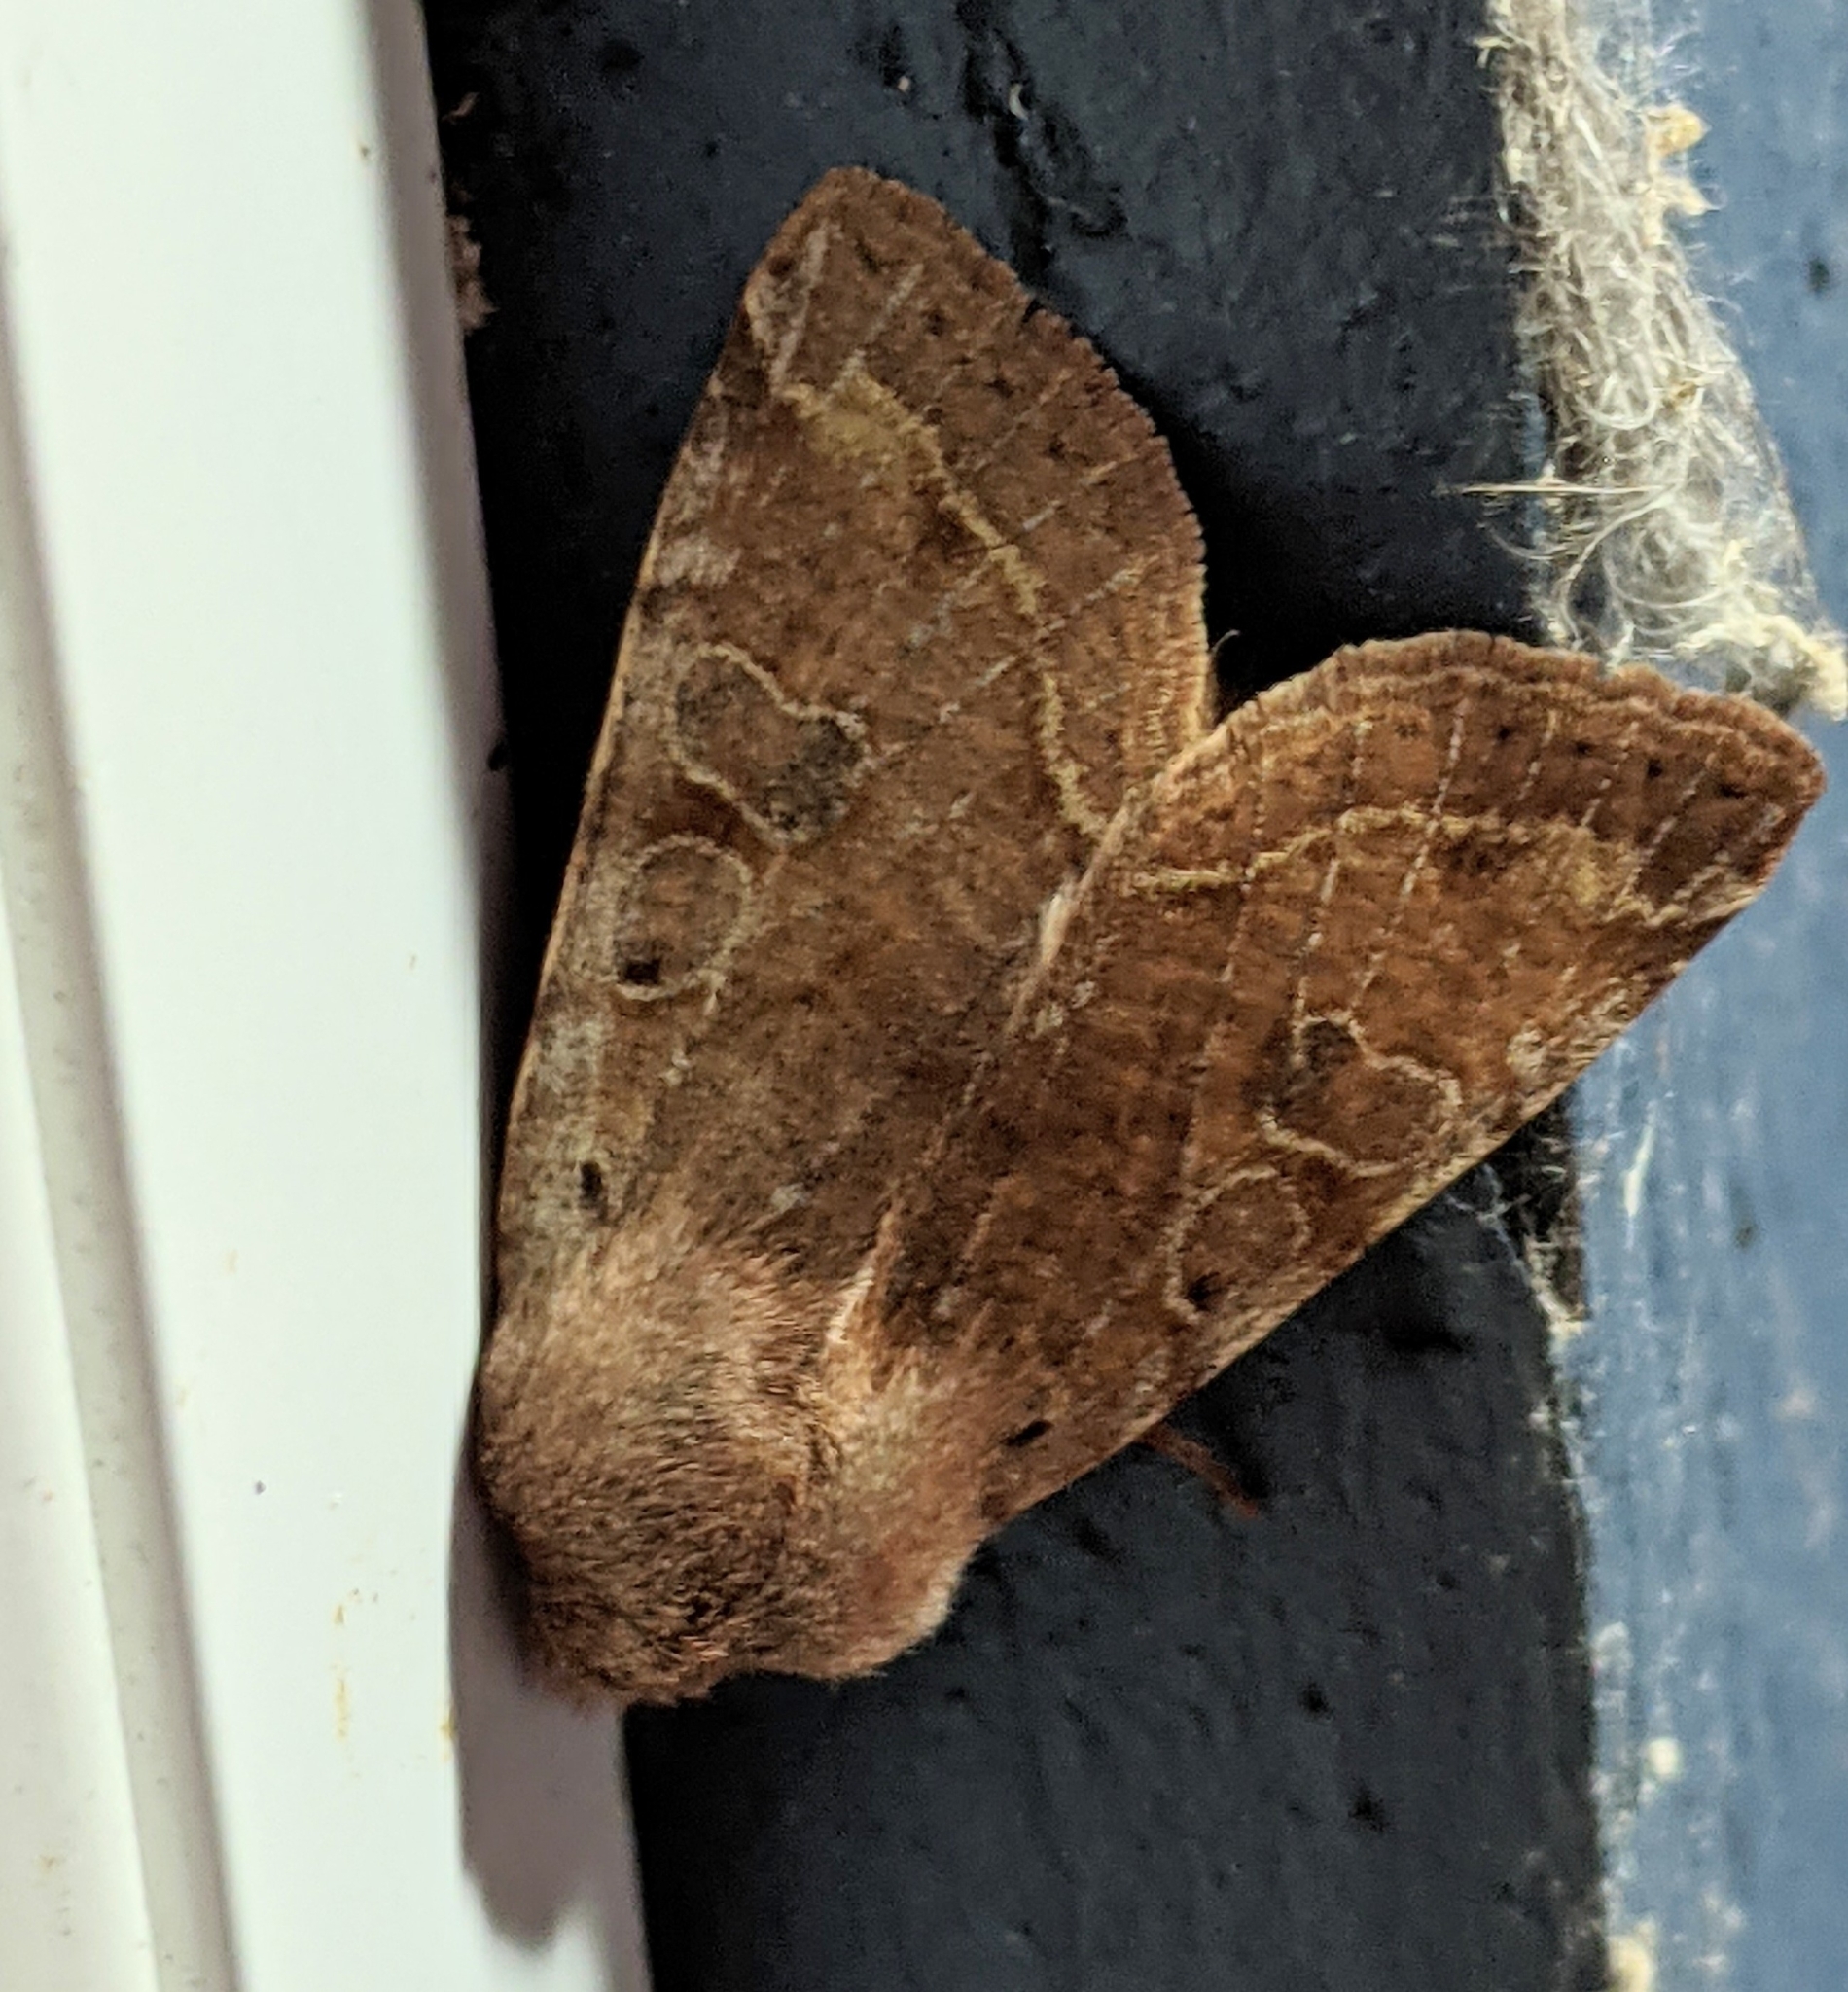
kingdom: Animalia
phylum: Arthropoda
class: Insecta
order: Lepidoptera
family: Noctuidae
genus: Orthosia
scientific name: Orthosia hibisci
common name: Green fruitworm
